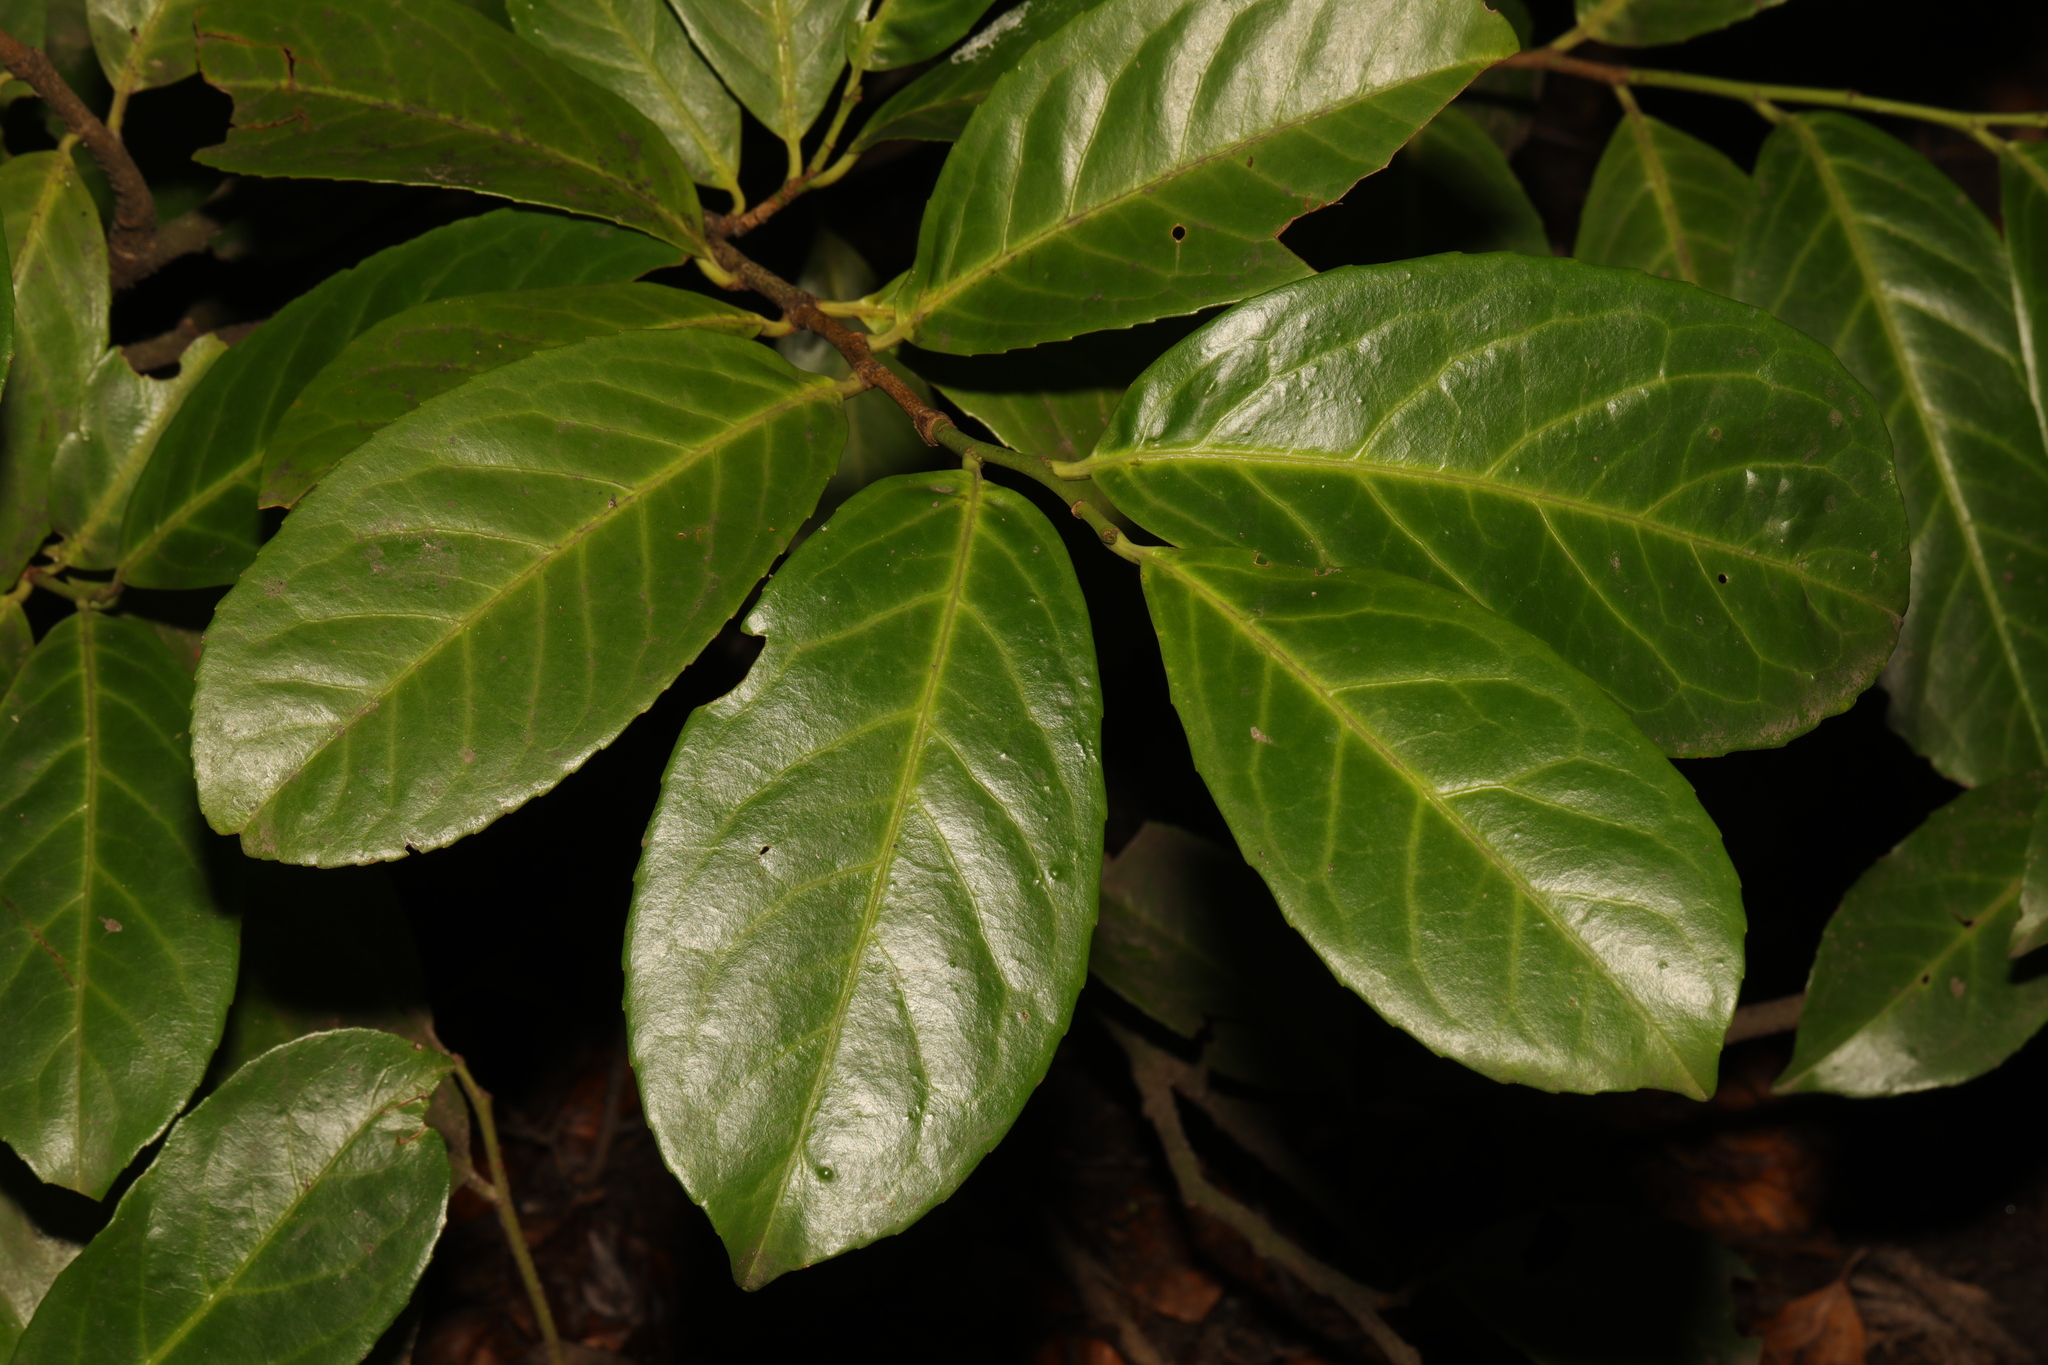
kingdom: Plantae
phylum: Tracheophyta
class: Magnoliopsida
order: Rosales
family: Rosaceae
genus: Prunus
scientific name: Prunus laurocerasus
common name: Cherry laurel
